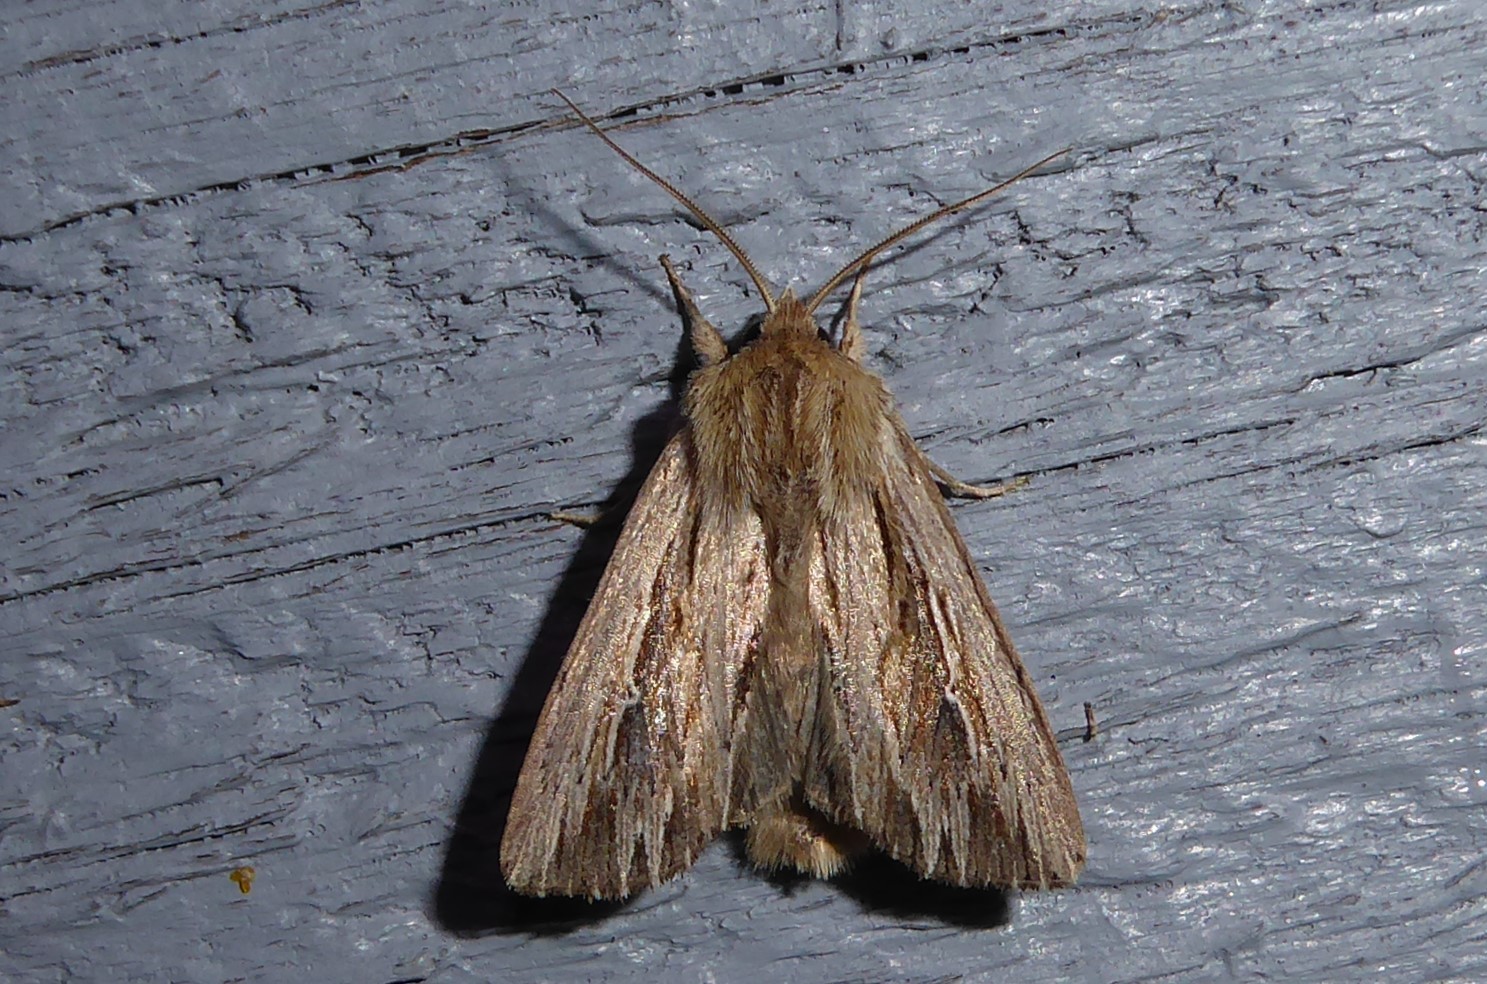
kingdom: Animalia
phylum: Arthropoda
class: Insecta
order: Lepidoptera
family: Noctuidae
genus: Persectania
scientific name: Persectania aversa
